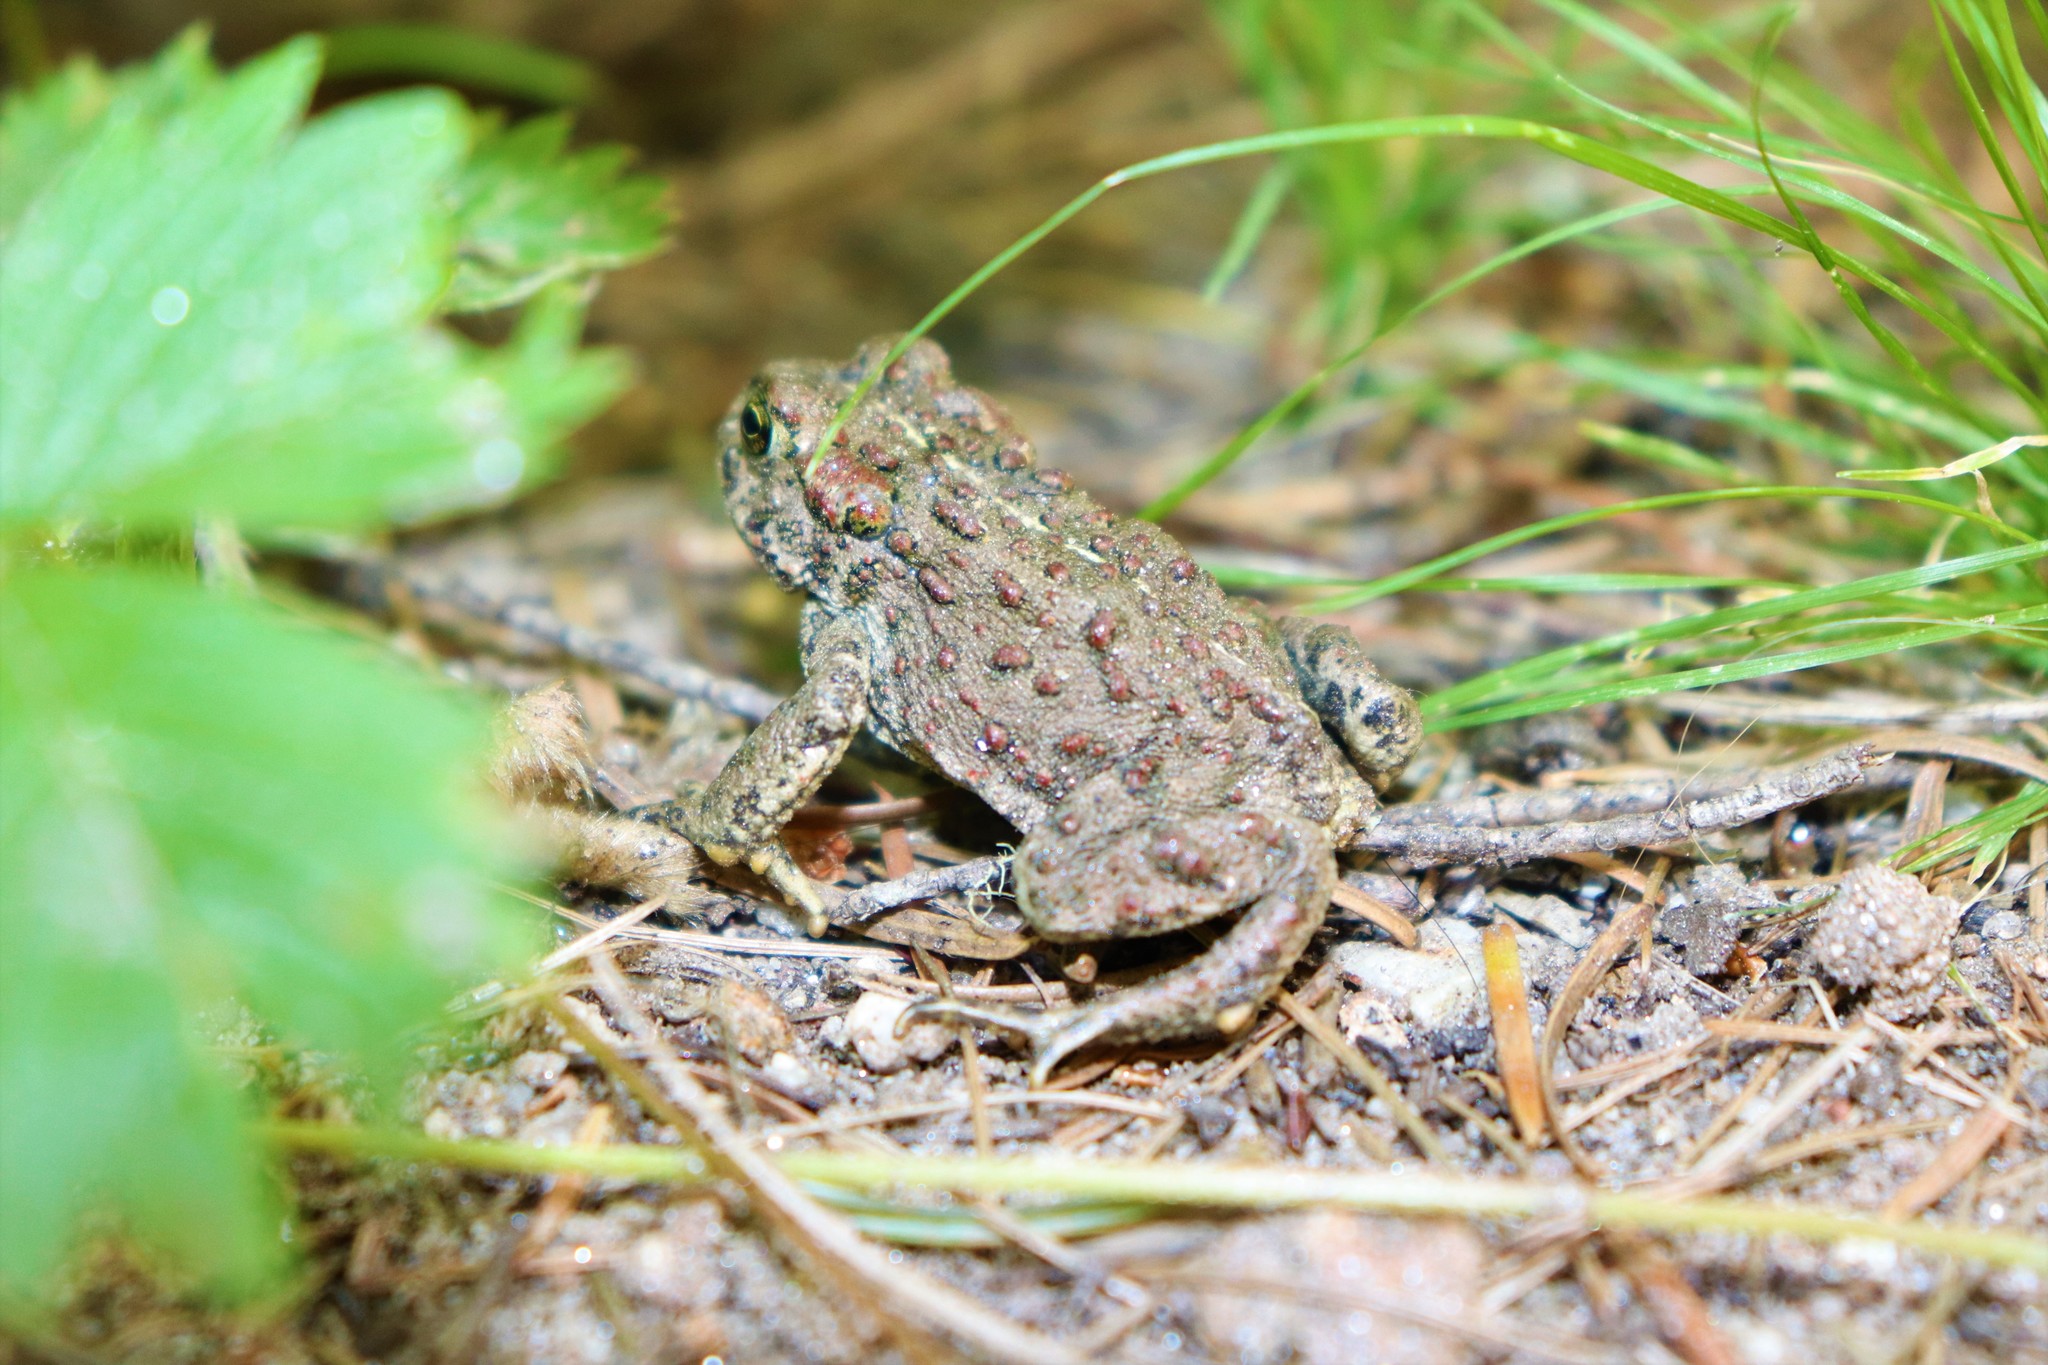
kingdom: Animalia
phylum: Chordata
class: Amphibia
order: Anura
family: Bufonidae
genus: Anaxyrus
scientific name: Anaxyrus boreas
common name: Western toad
